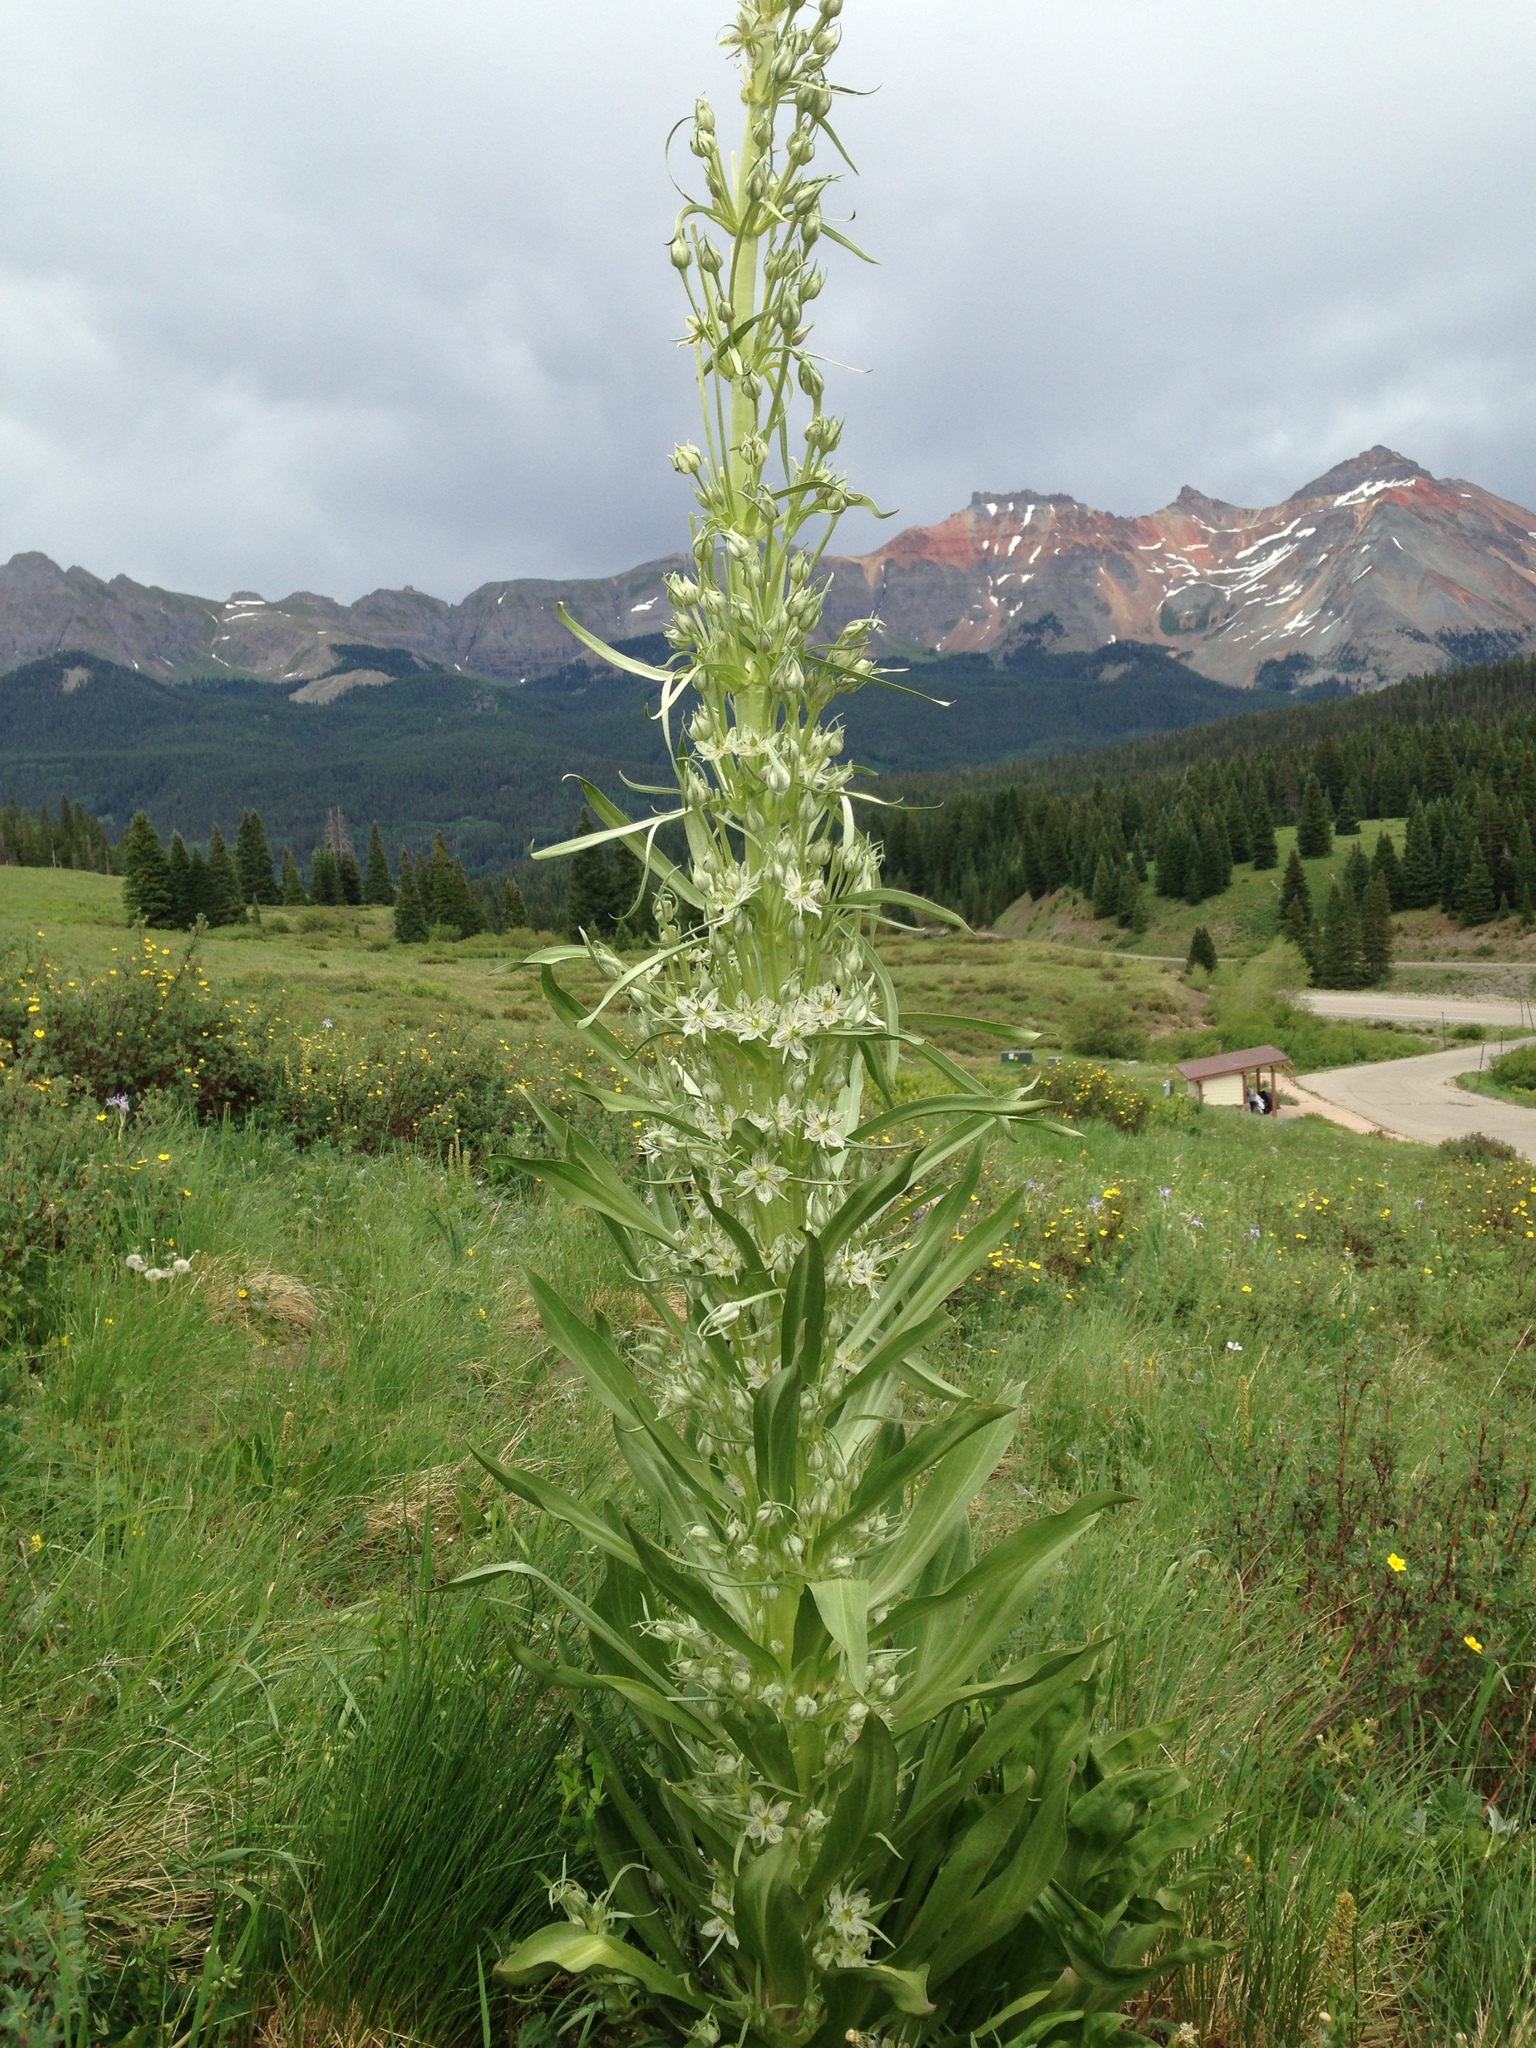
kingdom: Plantae
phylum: Tracheophyta
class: Magnoliopsida
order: Gentianales
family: Gentianaceae
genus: Frasera
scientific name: Frasera speciosa
